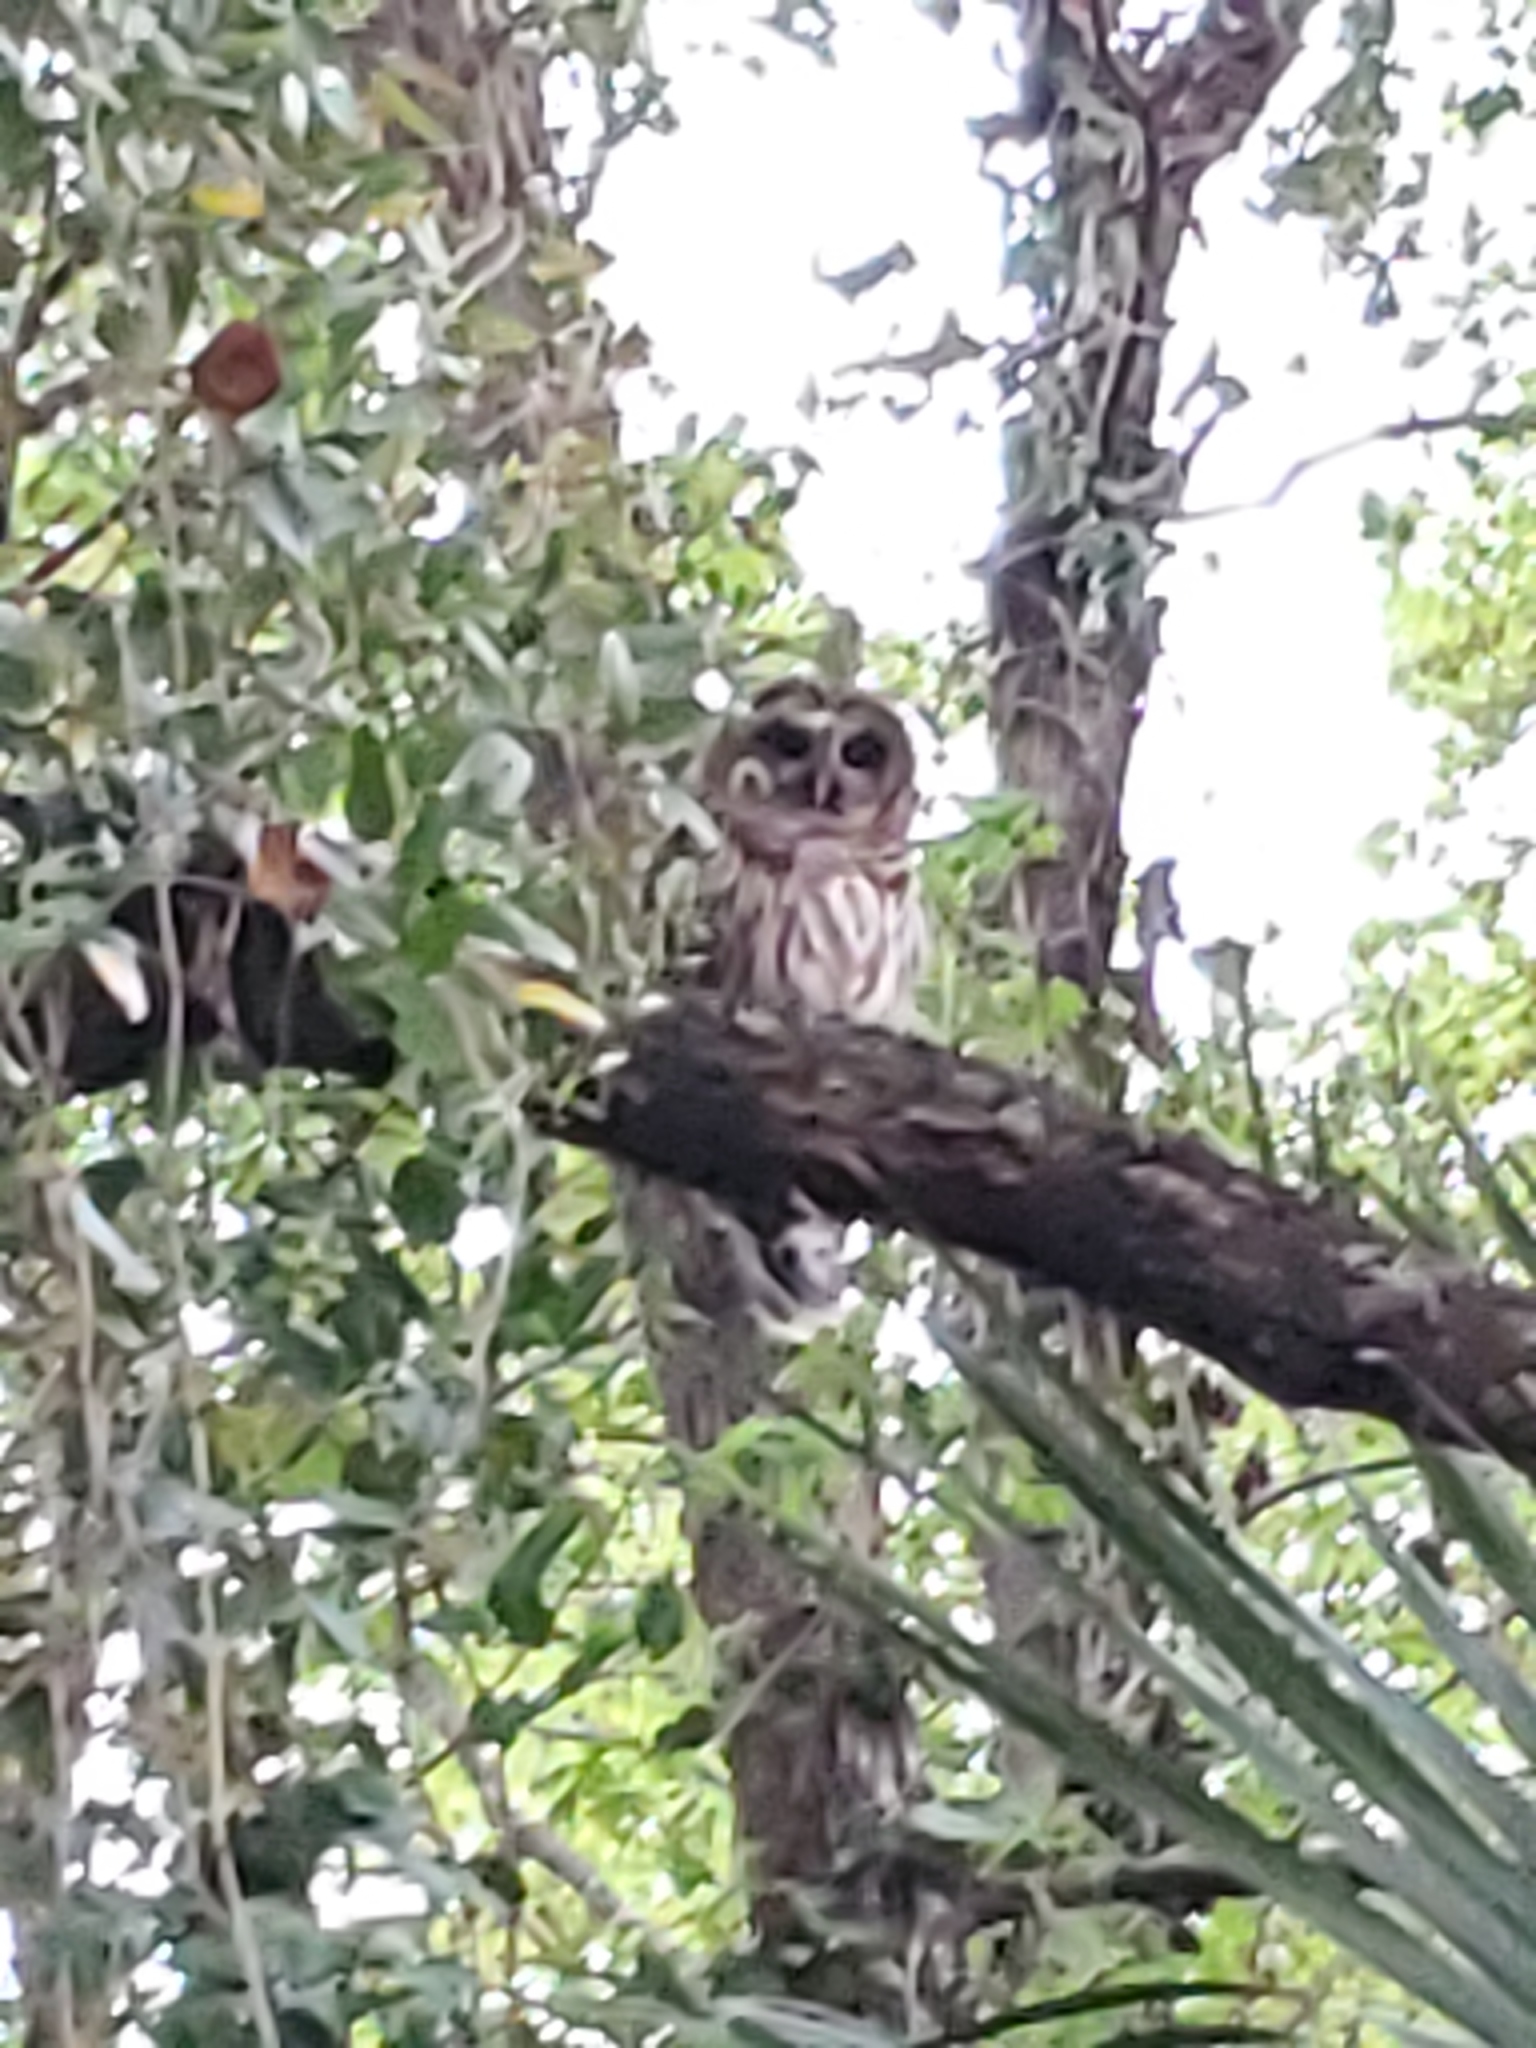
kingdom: Animalia
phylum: Chordata
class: Aves
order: Strigiformes
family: Strigidae
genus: Strix
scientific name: Strix varia
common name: Barred owl
